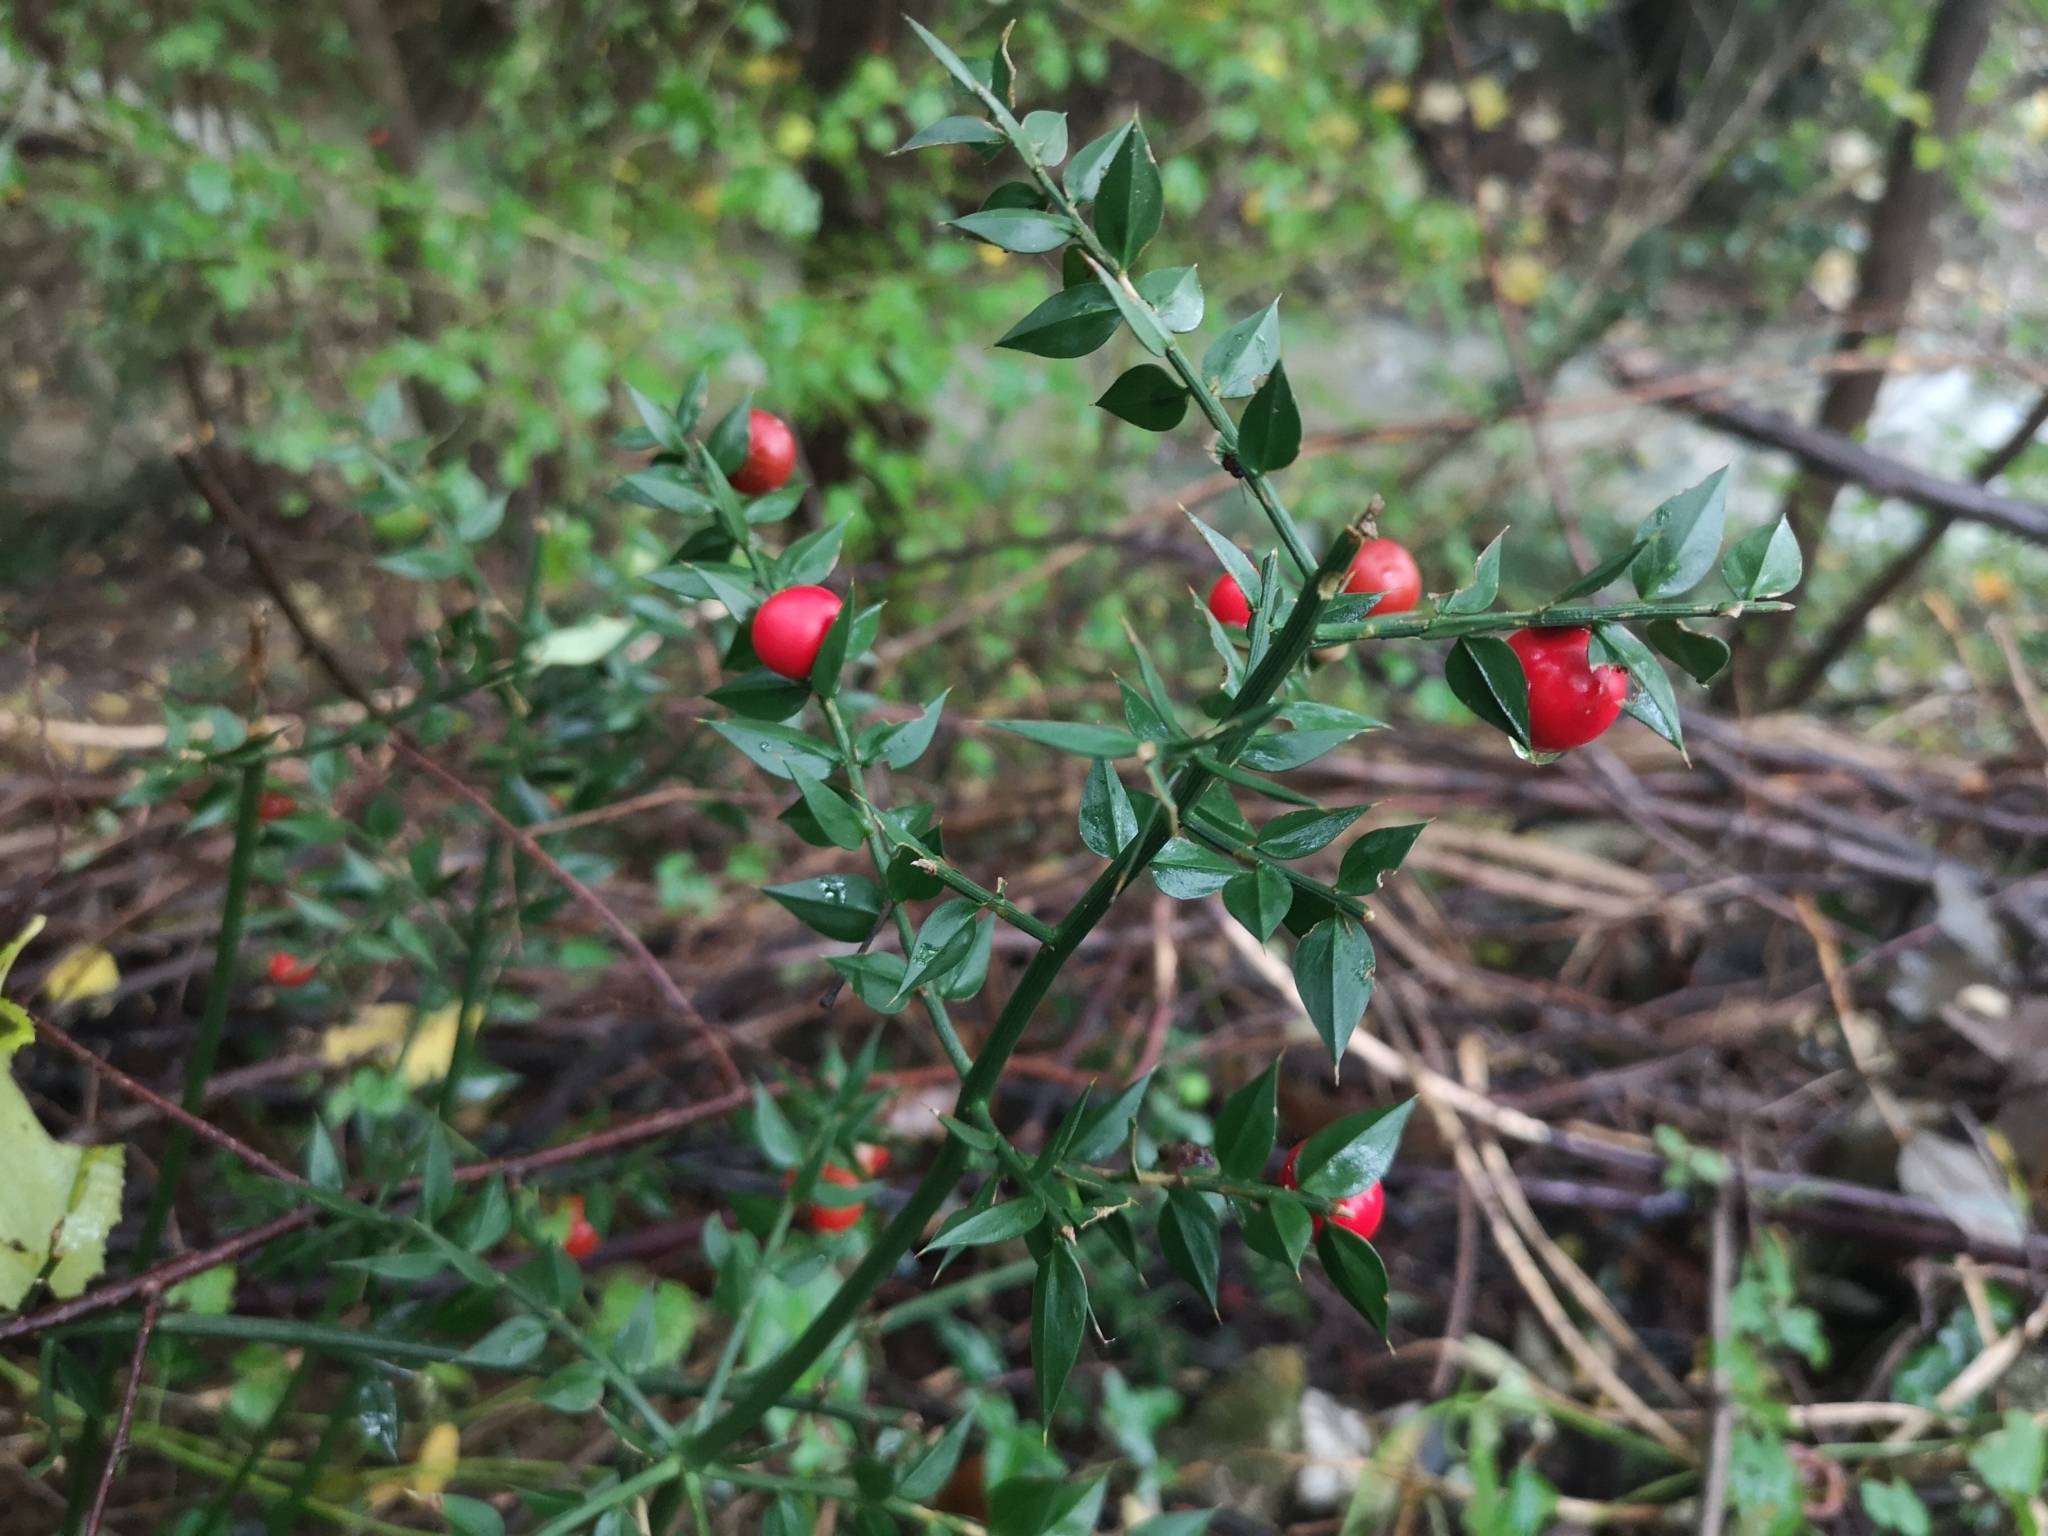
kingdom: Plantae
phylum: Tracheophyta
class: Liliopsida
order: Asparagales
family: Asparagaceae
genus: Ruscus
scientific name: Ruscus aculeatus
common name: Butcher's-broom
